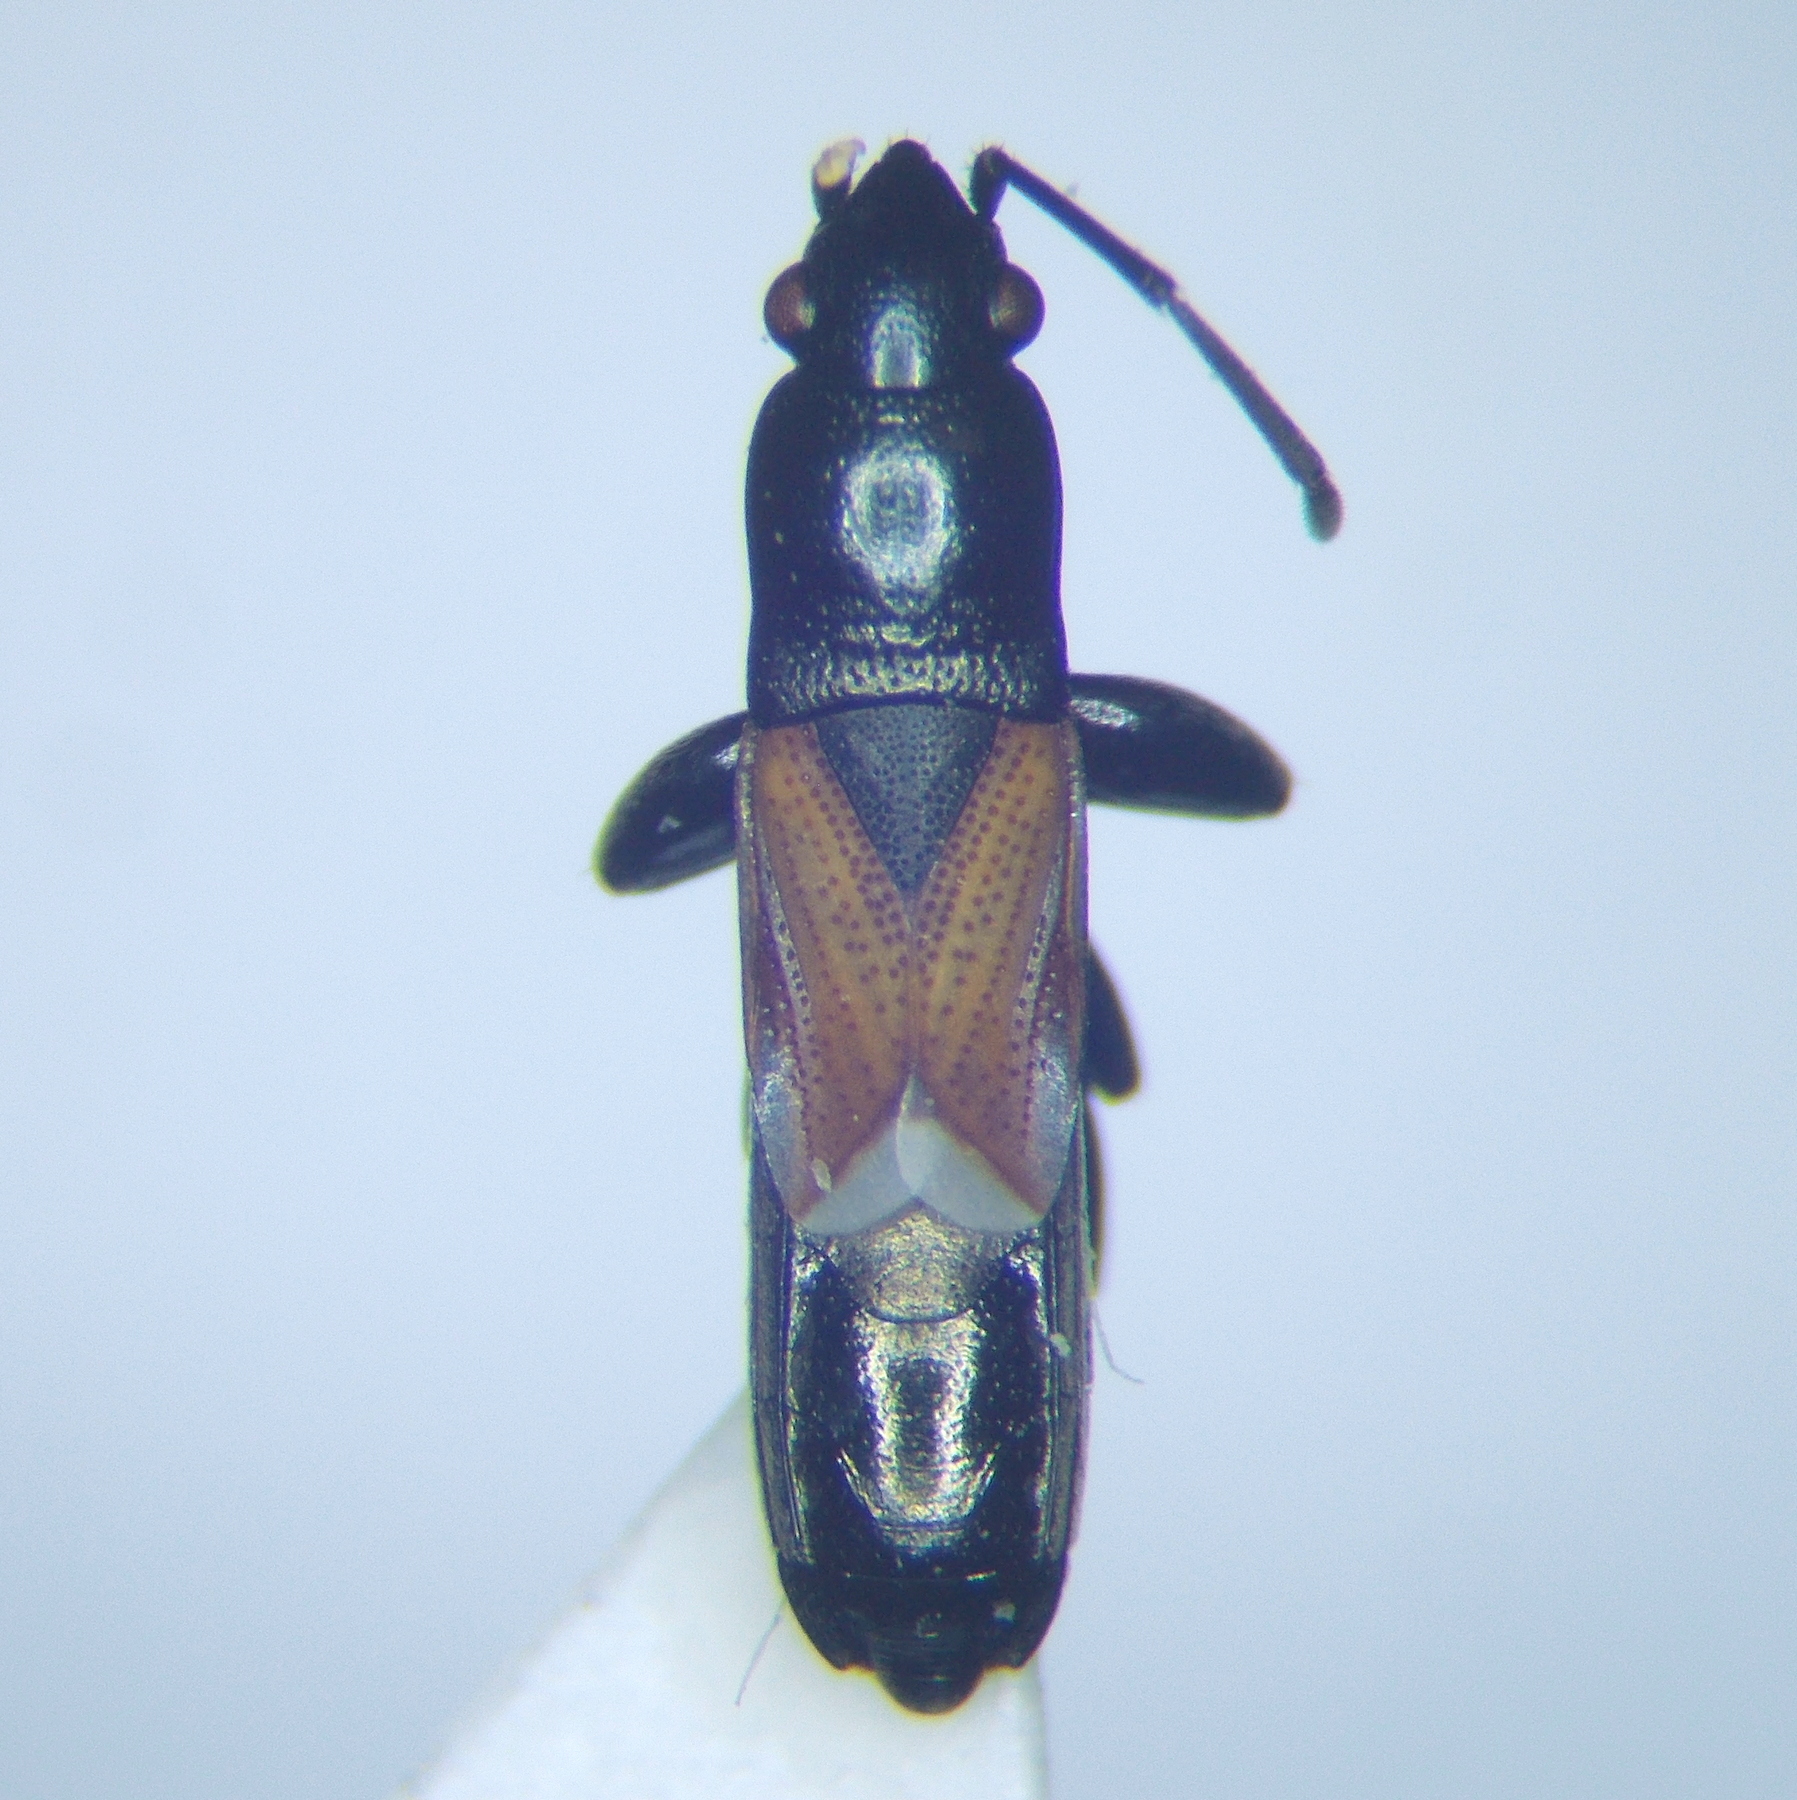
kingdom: Animalia
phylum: Arthropoda
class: Insecta
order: Hemiptera
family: Rhyparochromidae
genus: Pterotmetus
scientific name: Pterotmetus staphyliniformis
